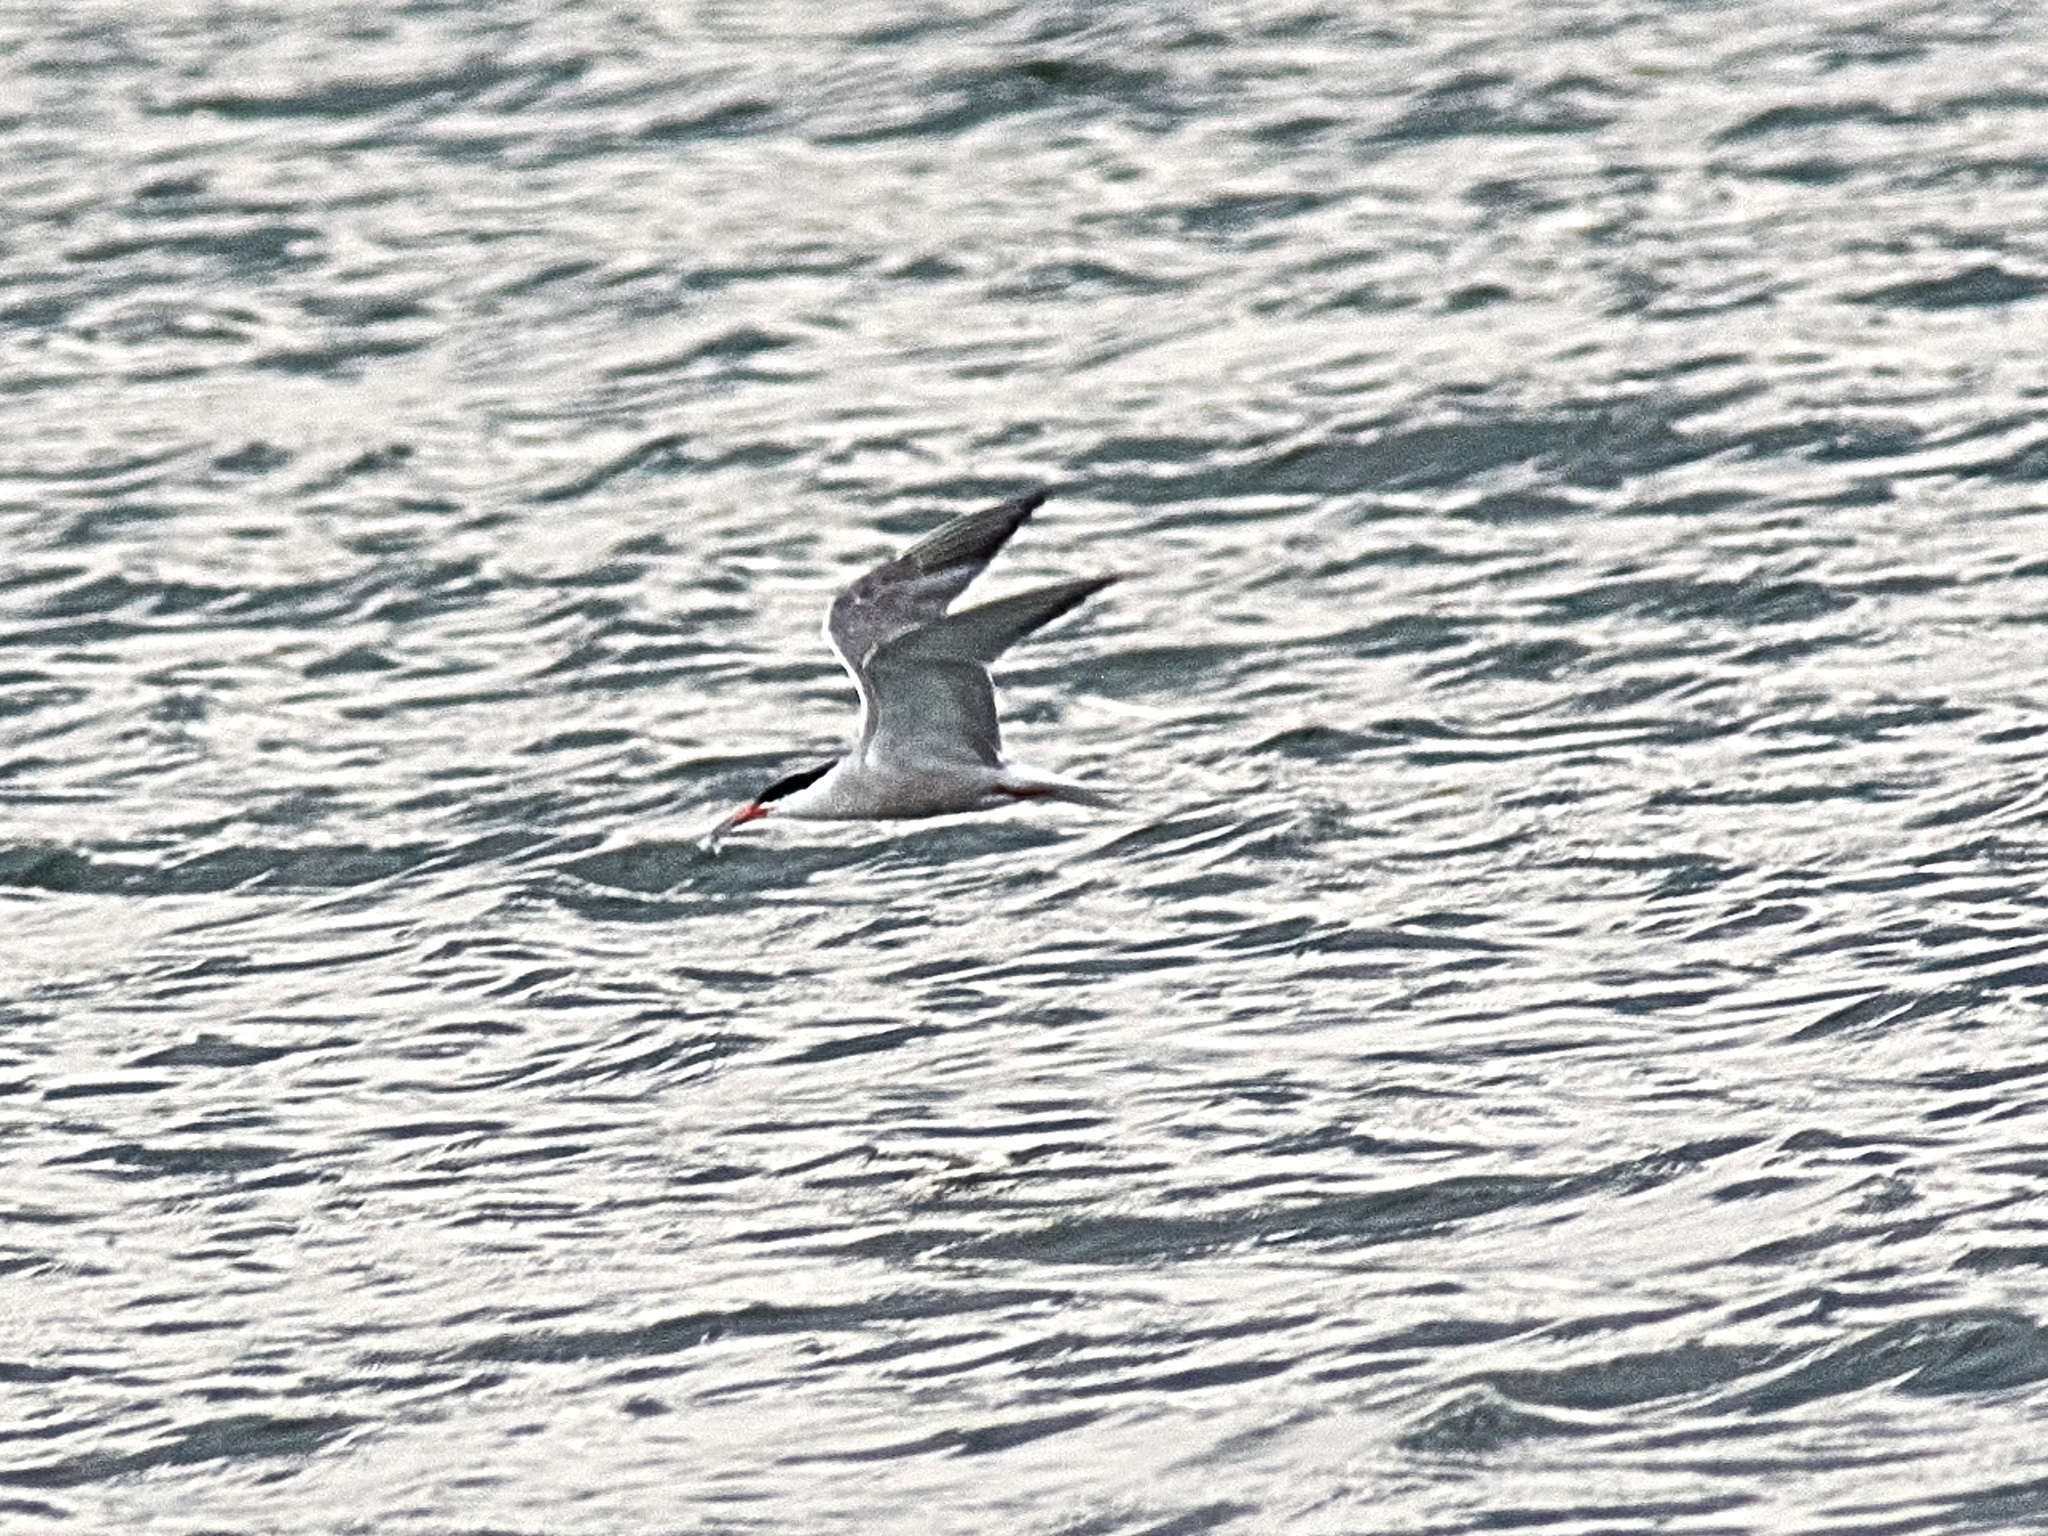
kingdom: Animalia
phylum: Chordata
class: Aves
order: Charadriiformes
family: Laridae
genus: Sterna
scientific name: Sterna hirundo
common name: Common tern
